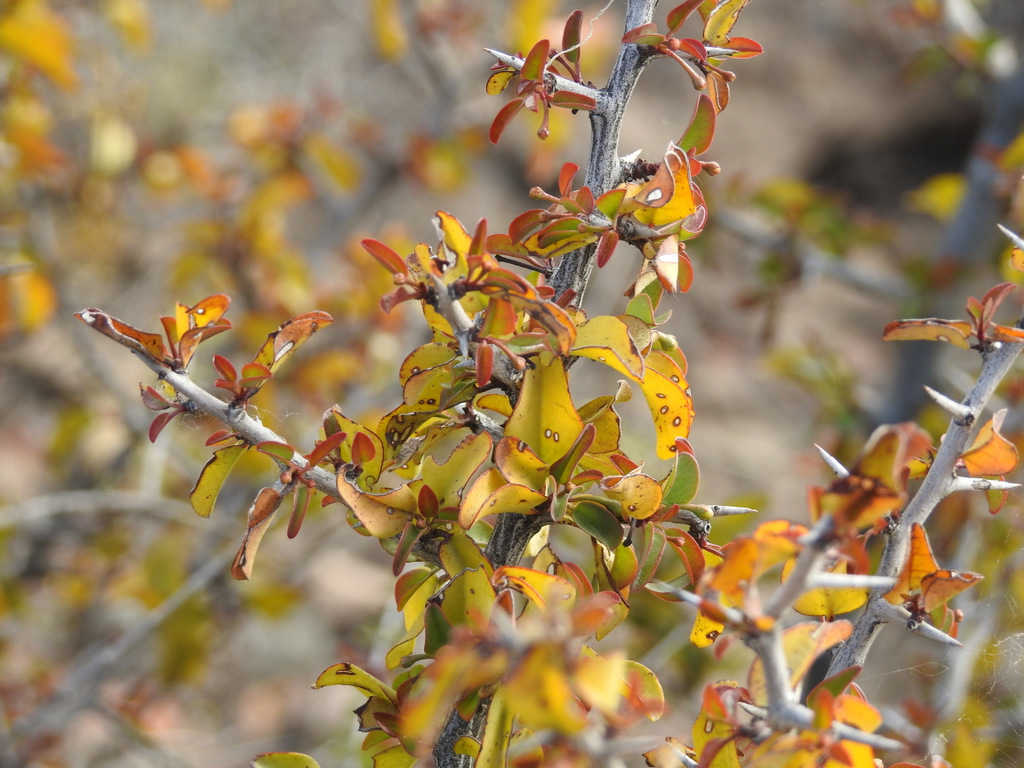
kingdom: Plantae
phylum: Tracheophyta
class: Magnoliopsida
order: Santalales
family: Ximeniaceae
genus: Ximenia
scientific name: Ximenia americana
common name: Tallowwood
